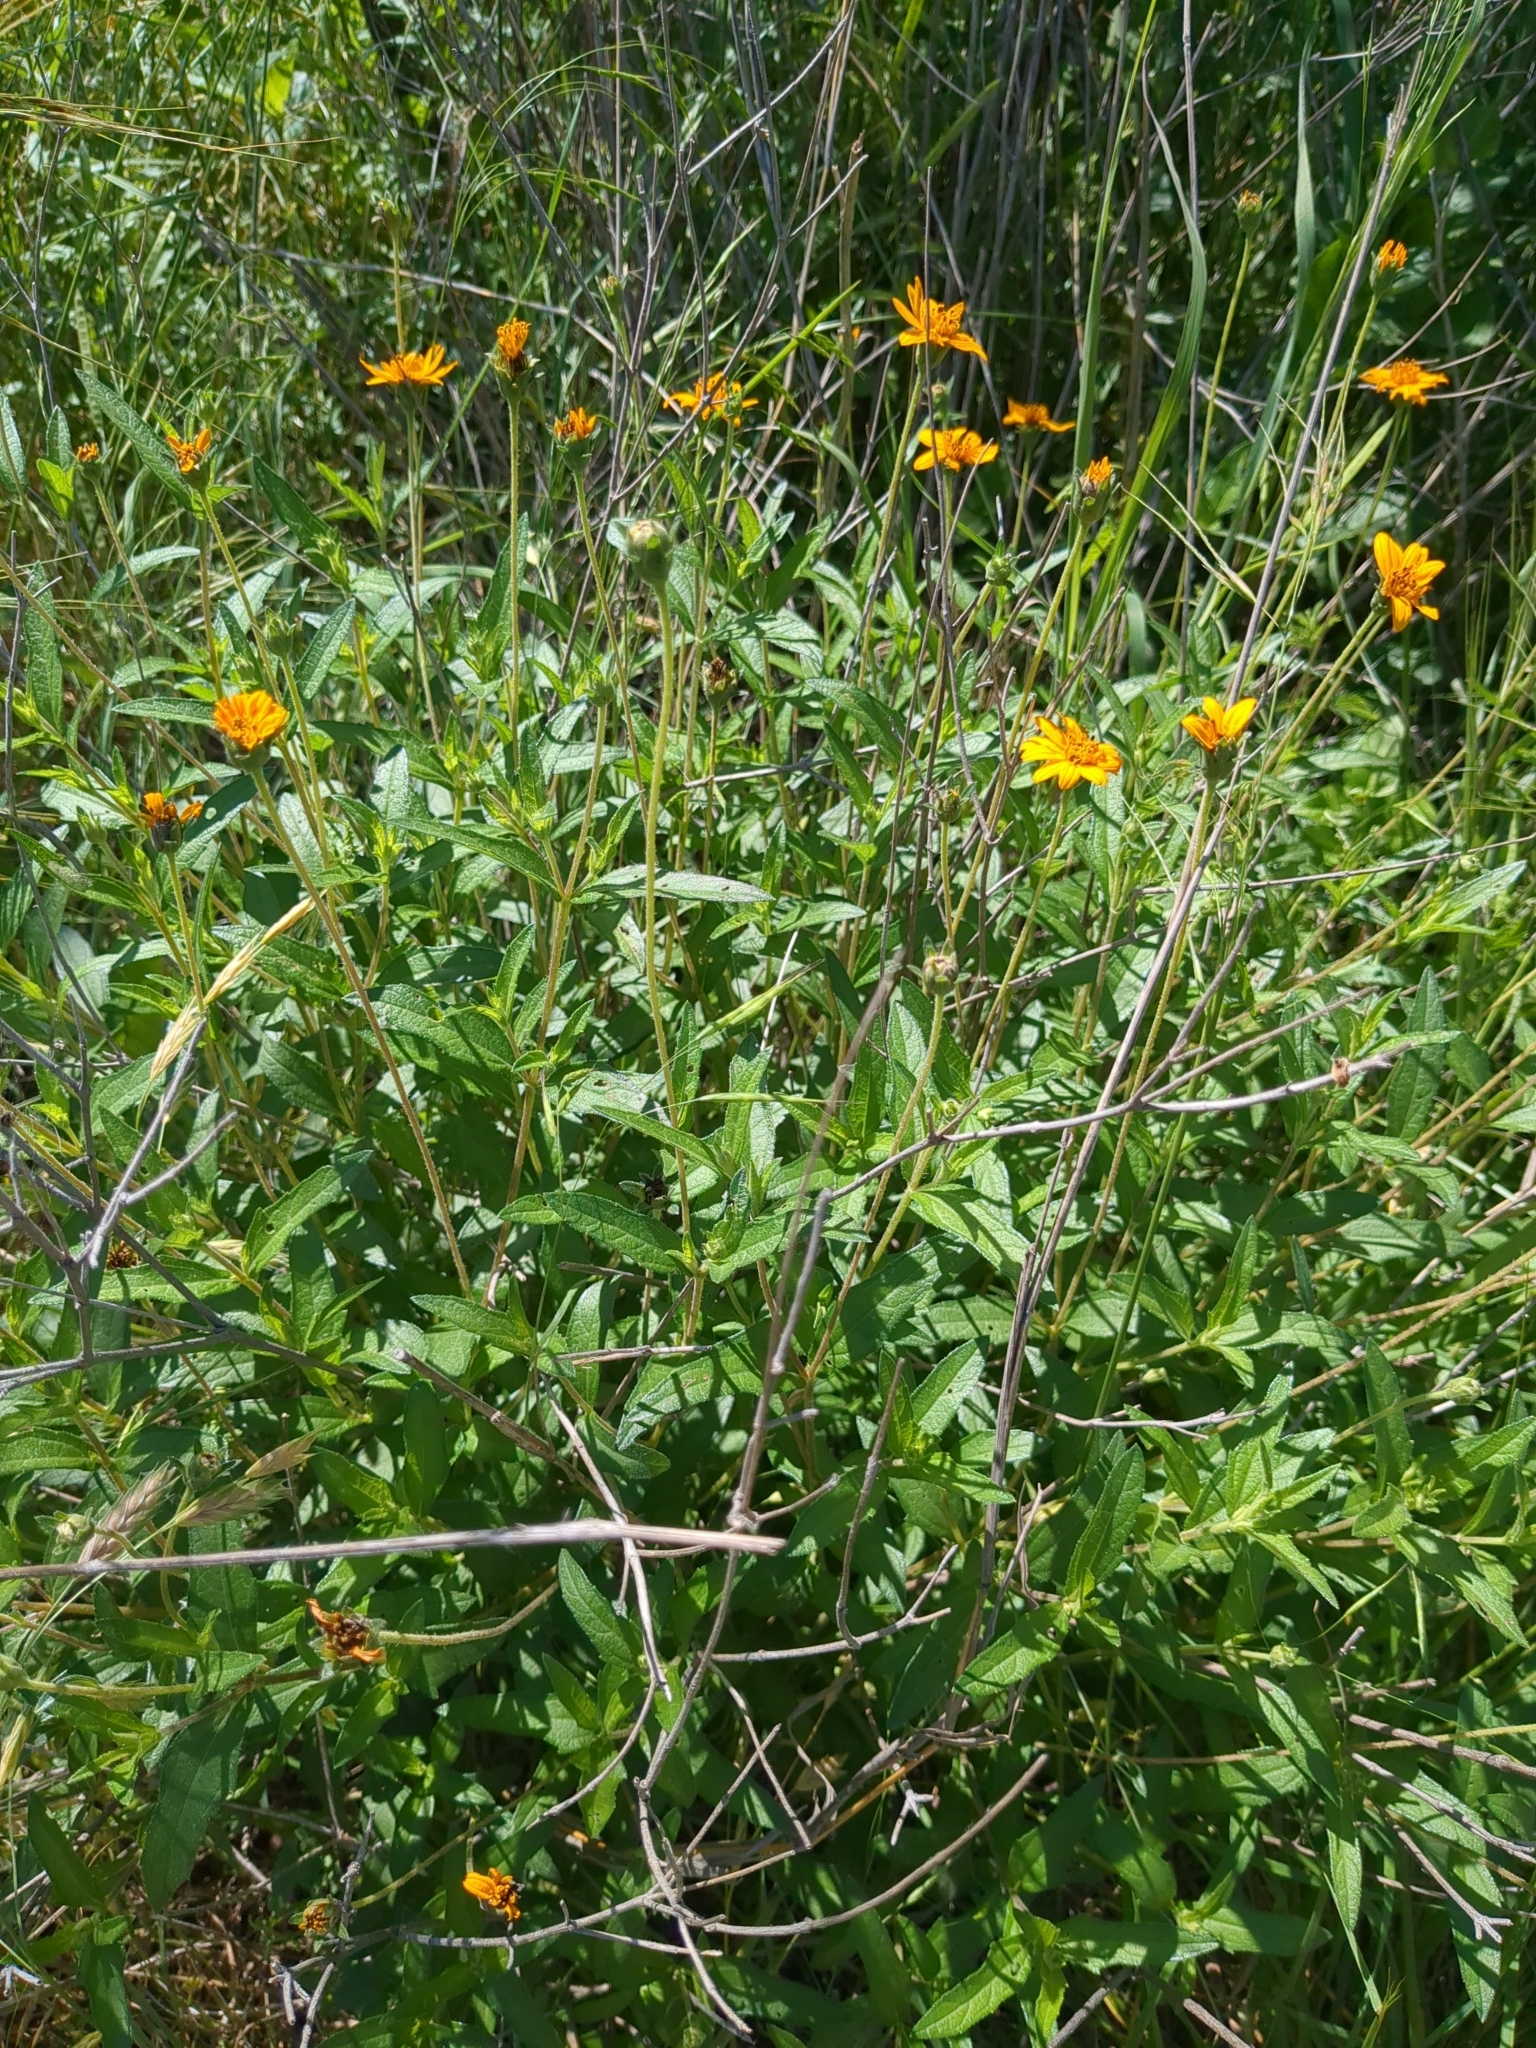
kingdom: Plantae
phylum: Tracheophyta
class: Magnoliopsida
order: Asterales
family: Asteraceae
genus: Wedelia
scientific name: Wedelia acapulcensis
